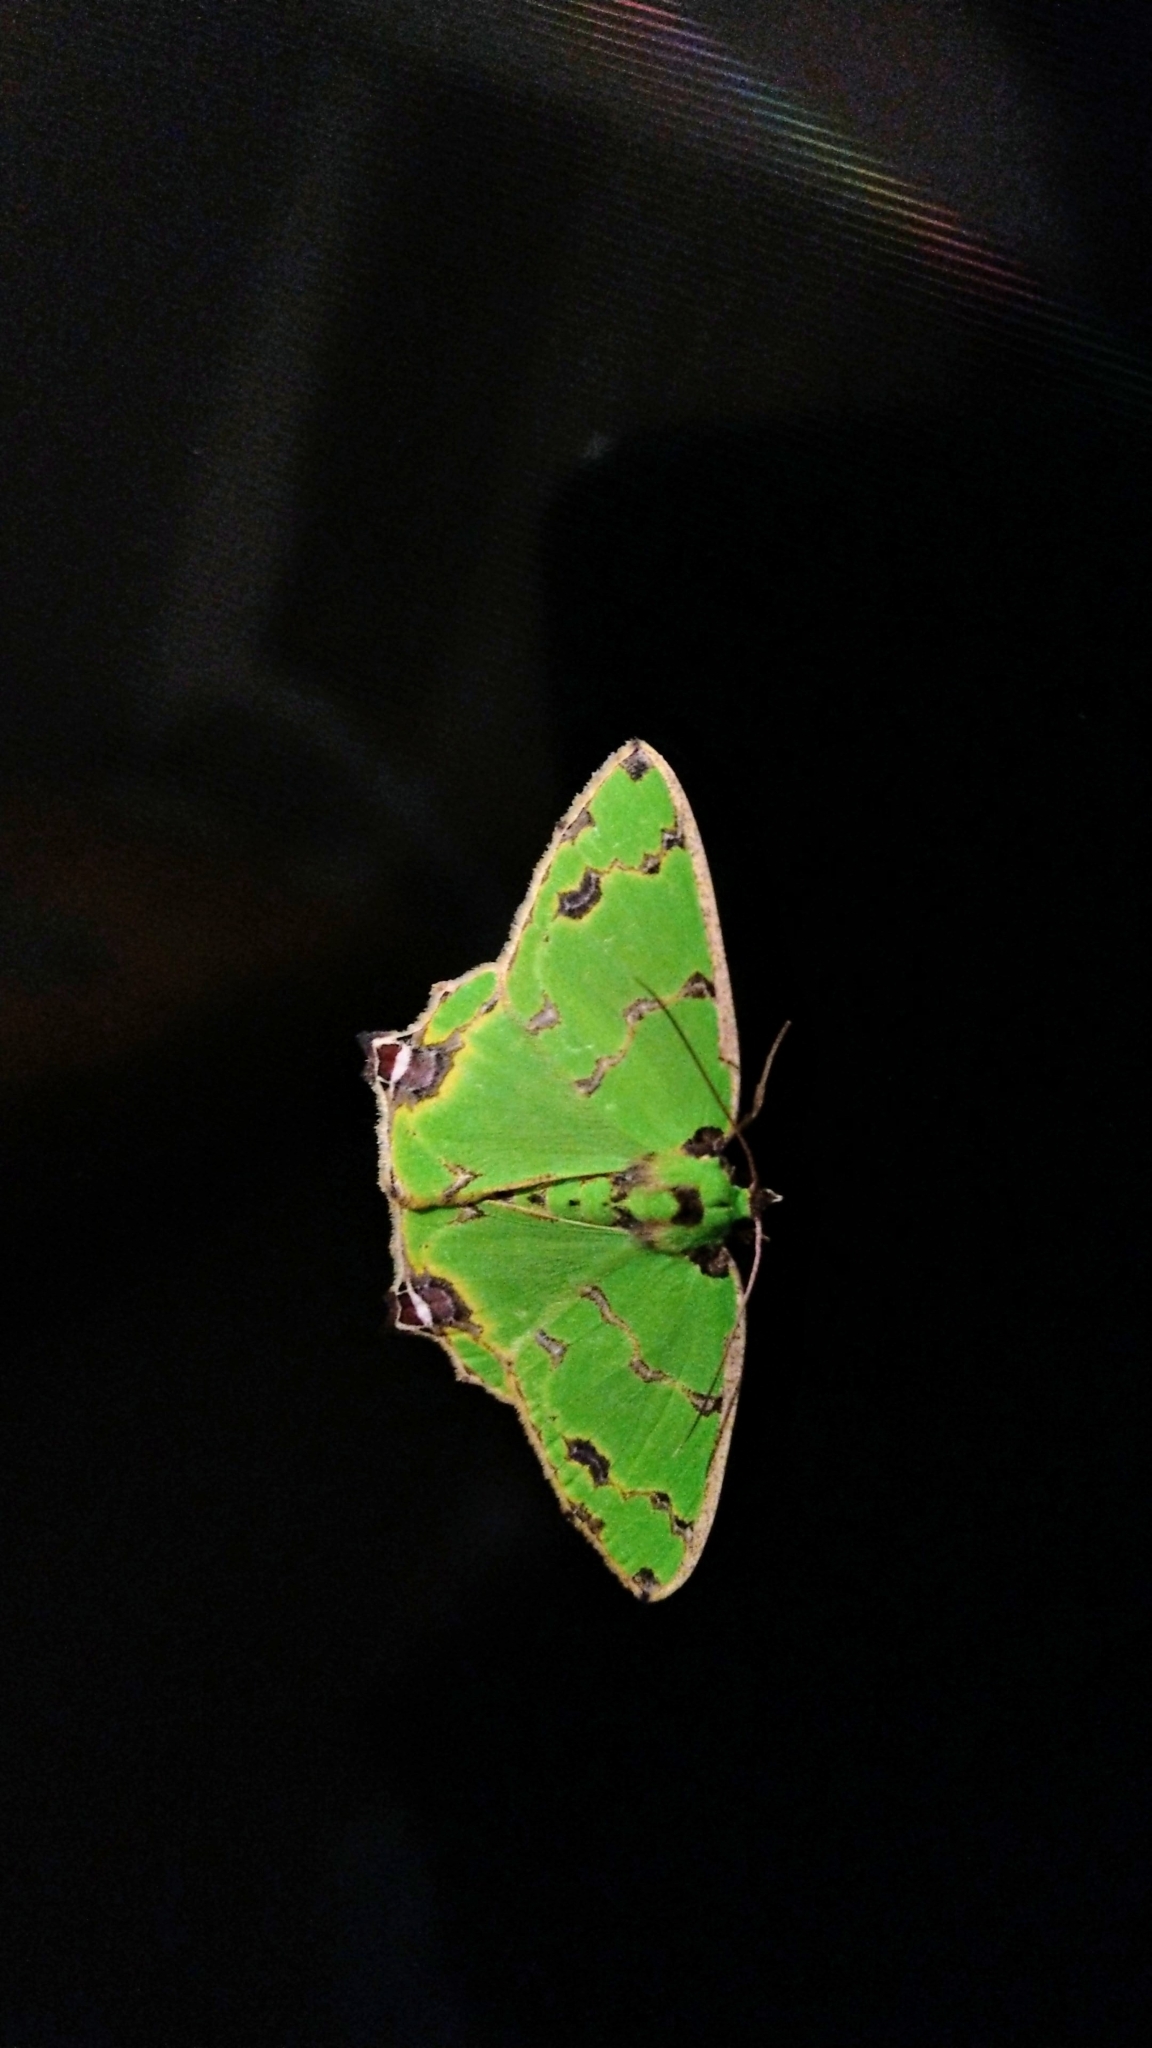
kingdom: Animalia
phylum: Arthropoda
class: Insecta
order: Lepidoptera
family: Geometridae
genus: Agathia
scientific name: Agathia lycaenaria
